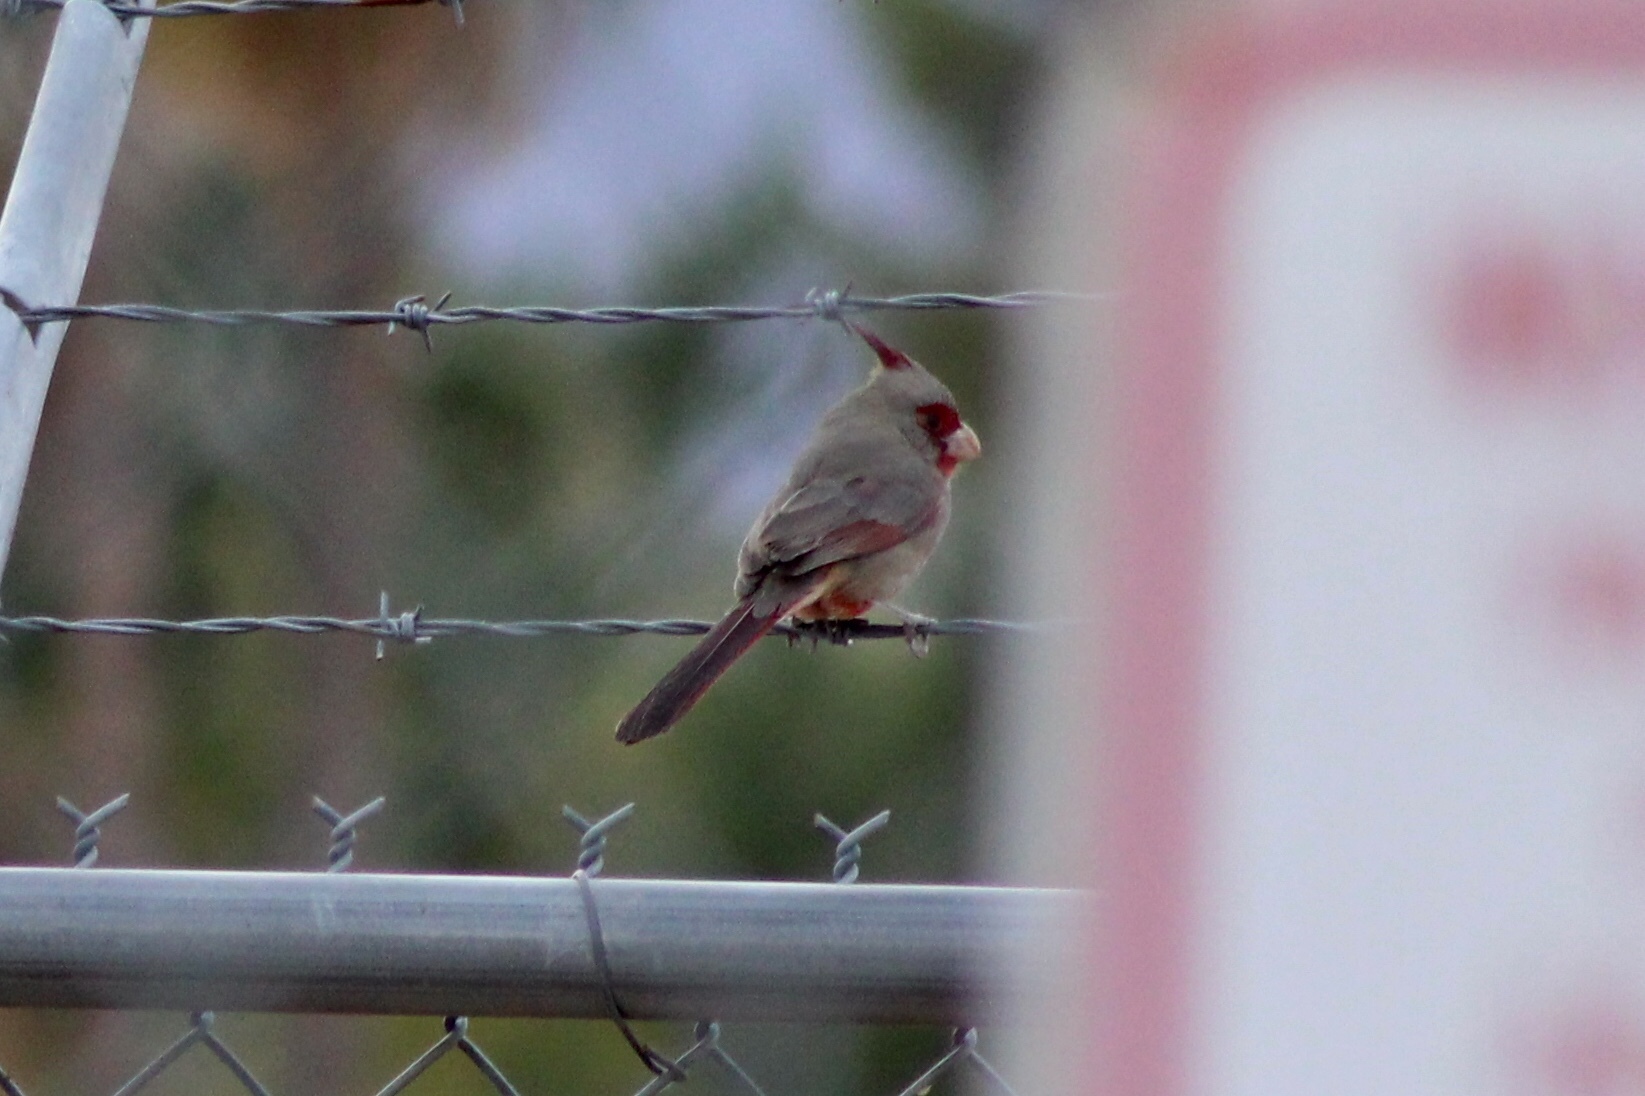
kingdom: Animalia
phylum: Chordata
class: Aves
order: Passeriformes
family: Cardinalidae
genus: Cardinalis
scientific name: Cardinalis sinuatus
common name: Pyrrhuloxia
